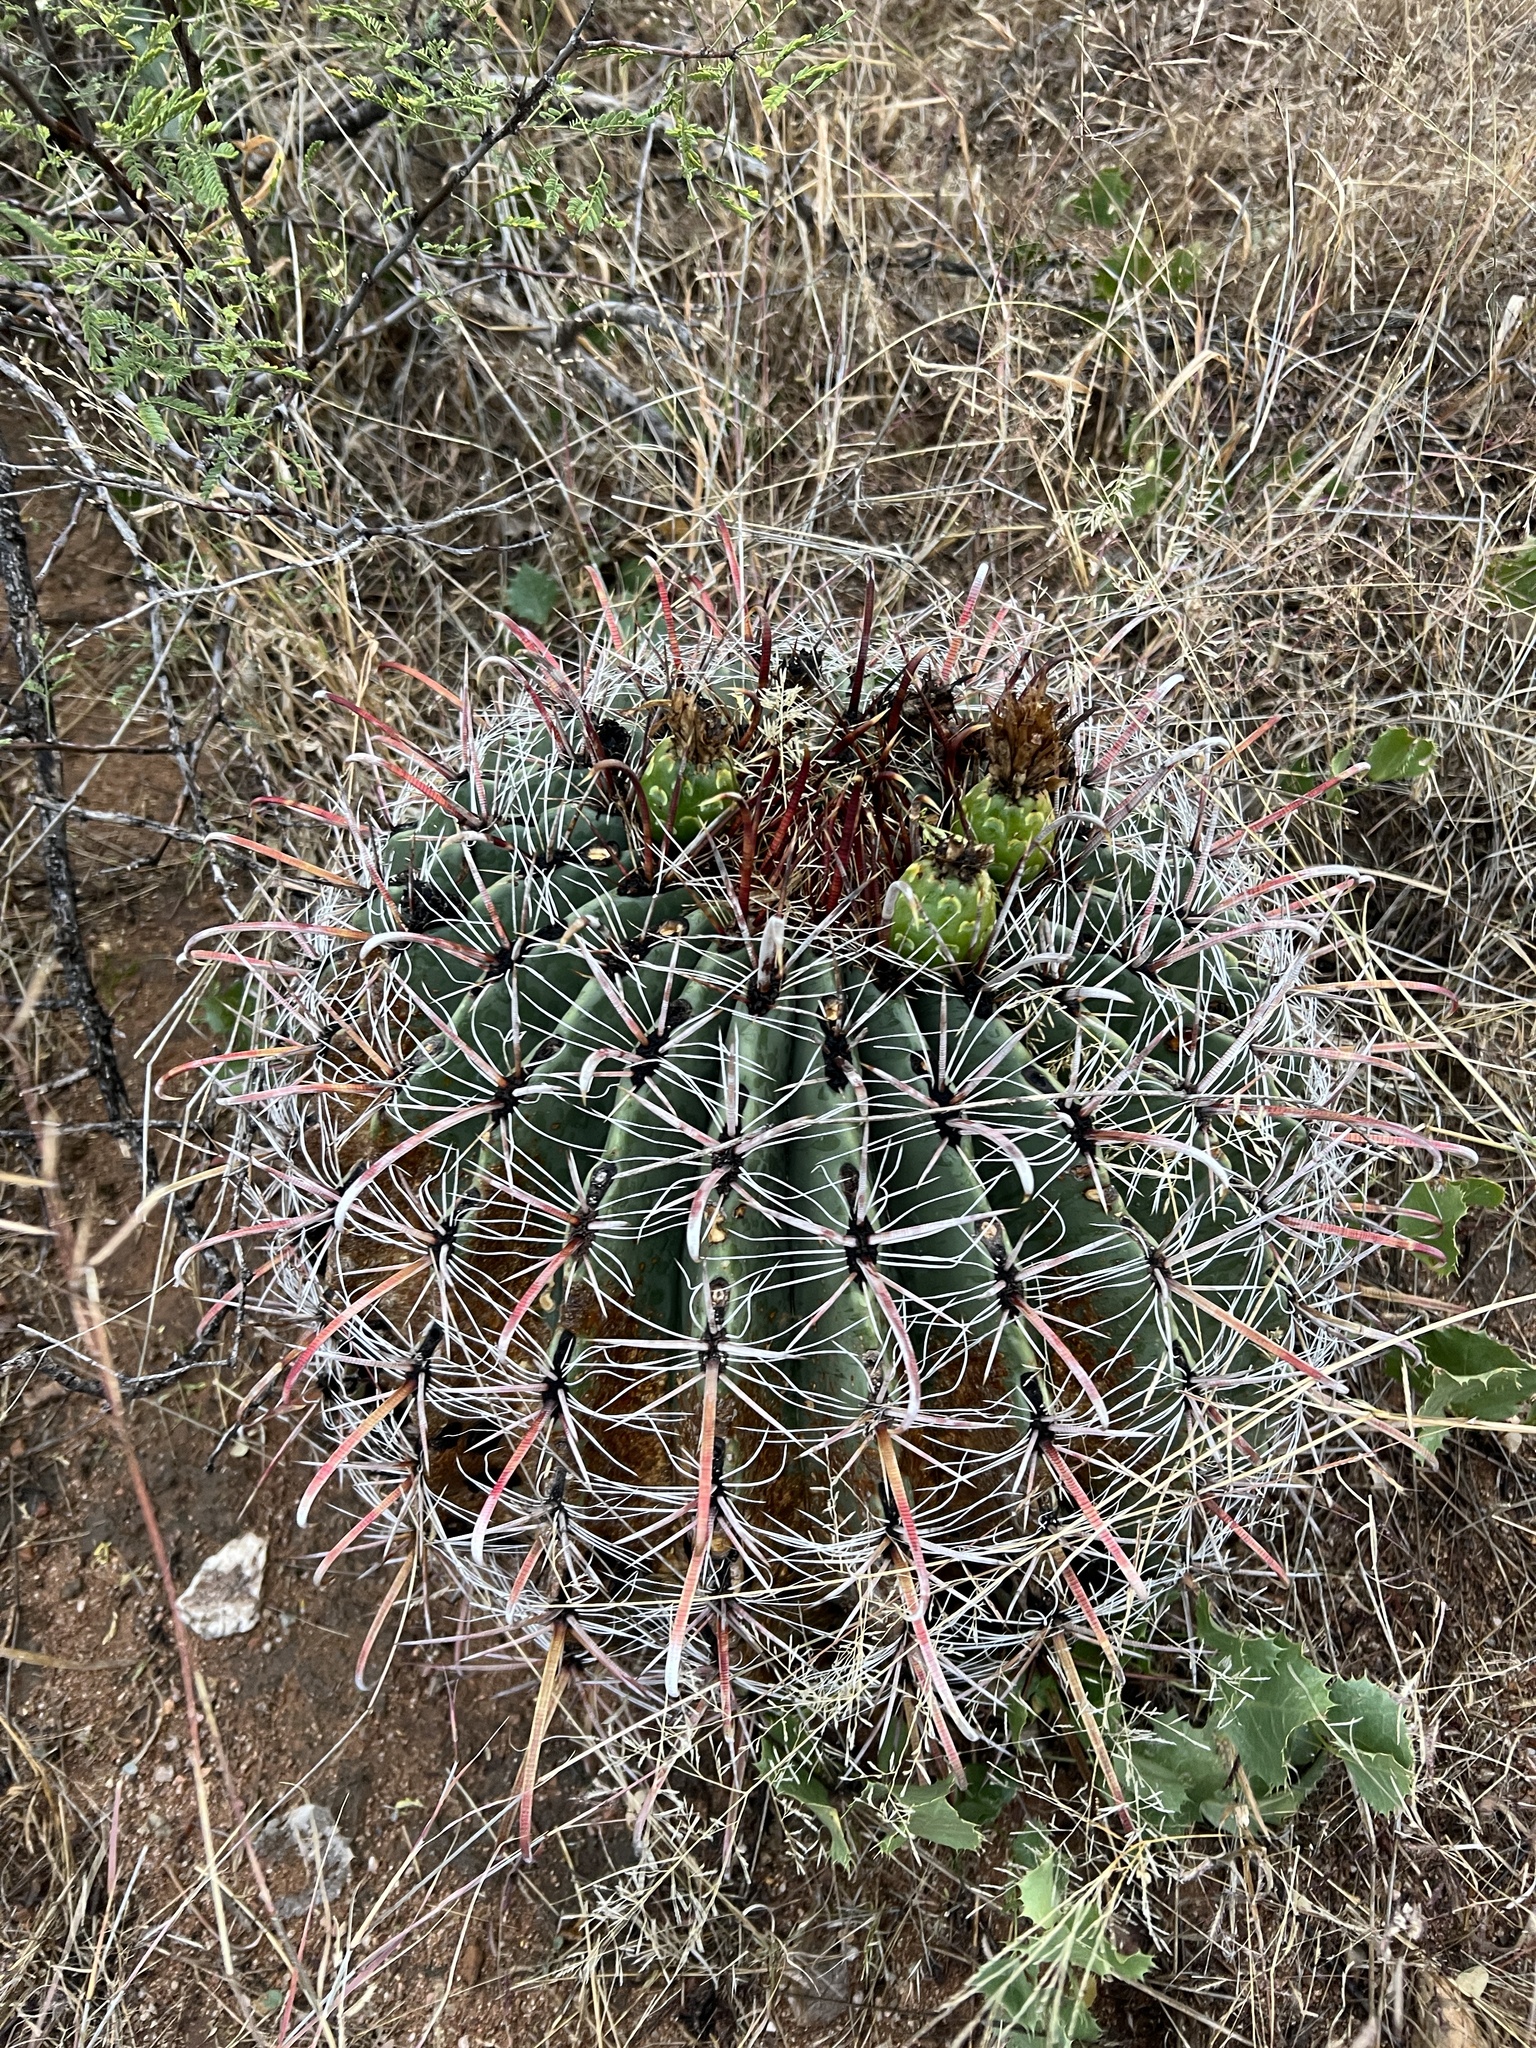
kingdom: Plantae
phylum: Tracheophyta
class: Magnoliopsida
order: Caryophyllales
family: Cactaceae
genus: Ferocactus
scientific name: Ferocactus wislizeni
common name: Candy barrel cactus
